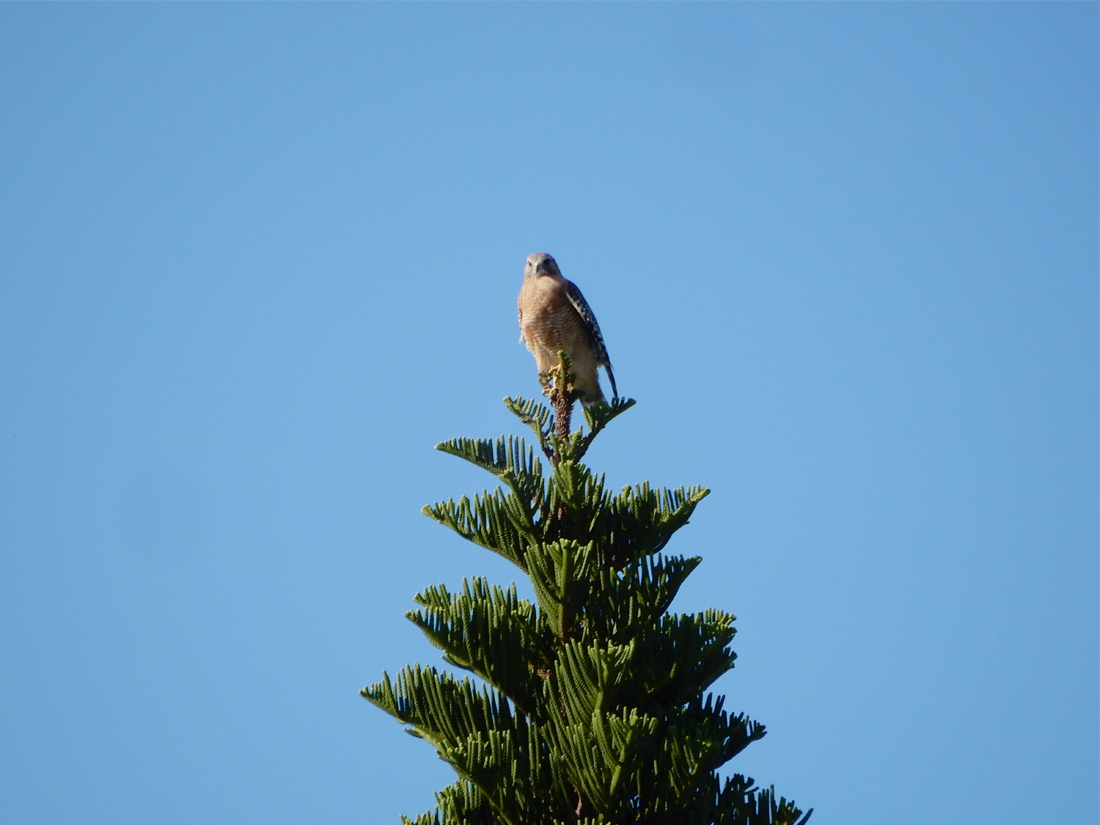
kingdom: Animalia
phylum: Chordata
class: Aves
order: Accipitriformes
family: Accipitridae
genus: Buteo
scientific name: Buteo lineatus
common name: Red-shouldered hawk
